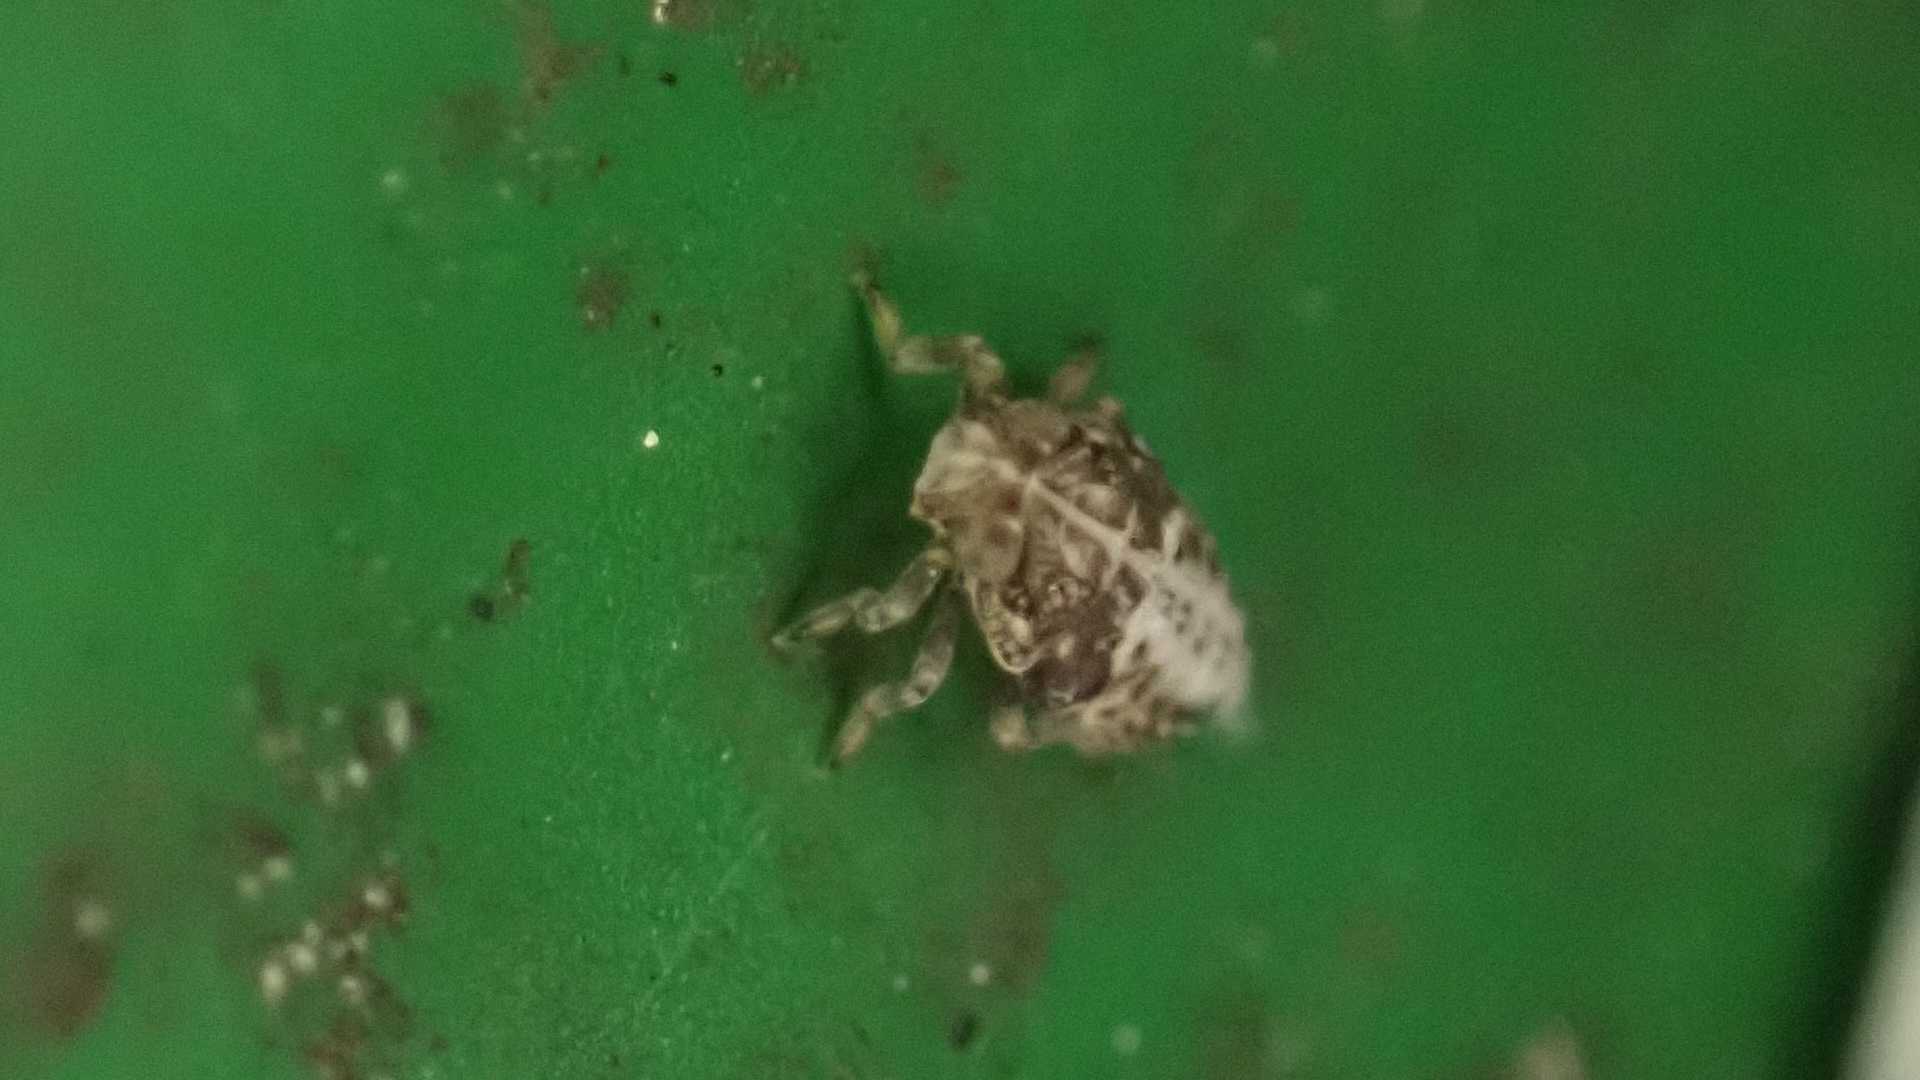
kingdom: Animalia
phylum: Arthropoda
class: Insecta
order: Hemiptera
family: Issidae
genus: Issus
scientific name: Issus
